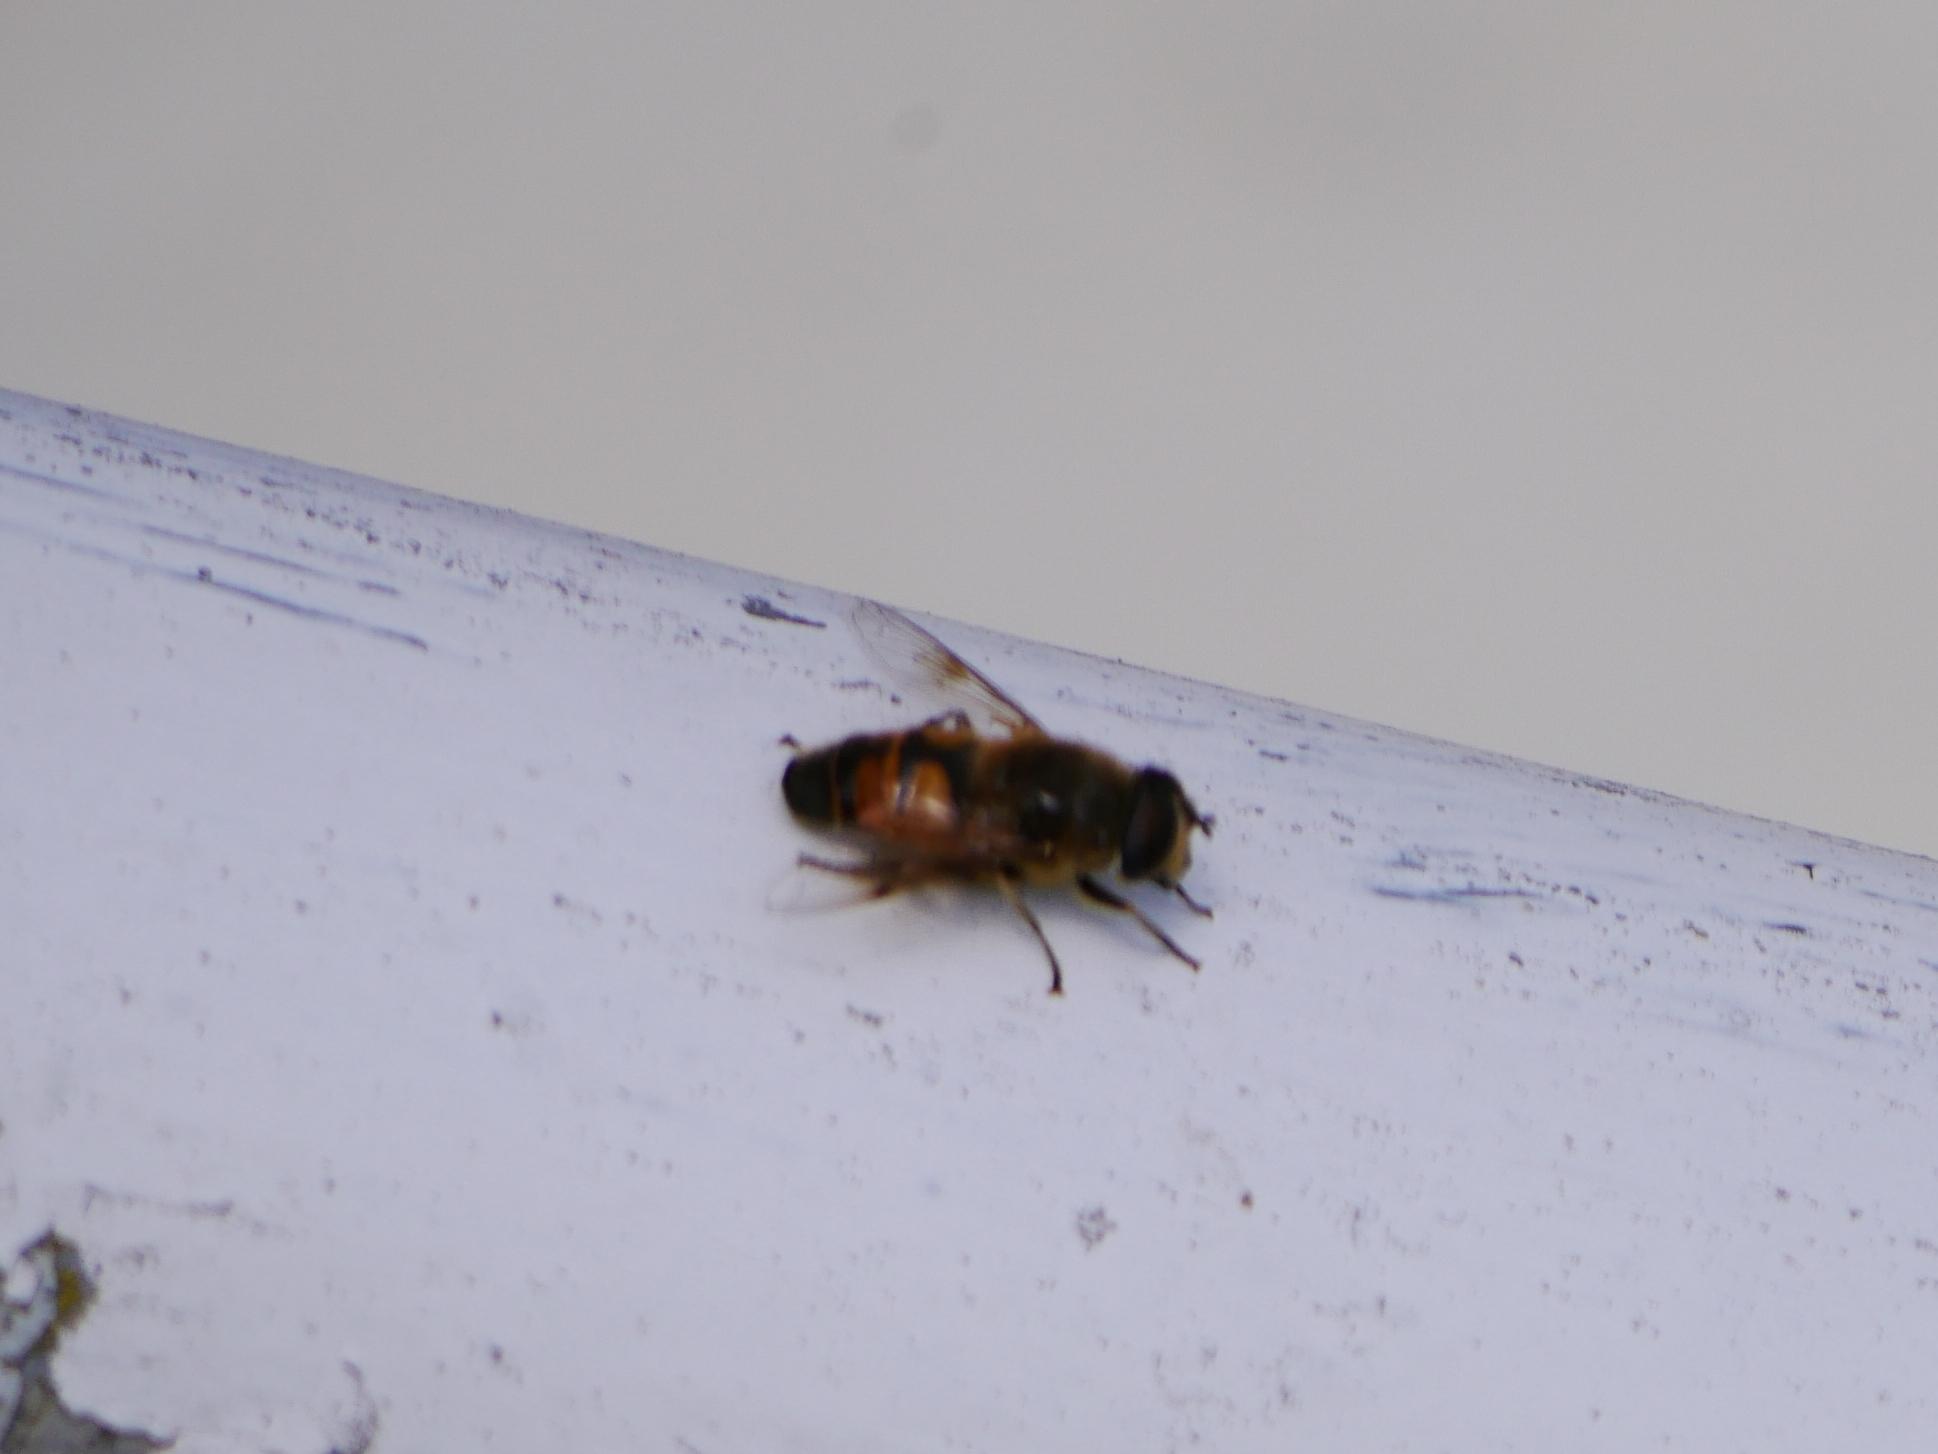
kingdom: Animalia
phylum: Arthropoda
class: Insecta
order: Diptera
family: Syrphidae
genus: Eristalis
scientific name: Eristalis tenax
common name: Drone fly
